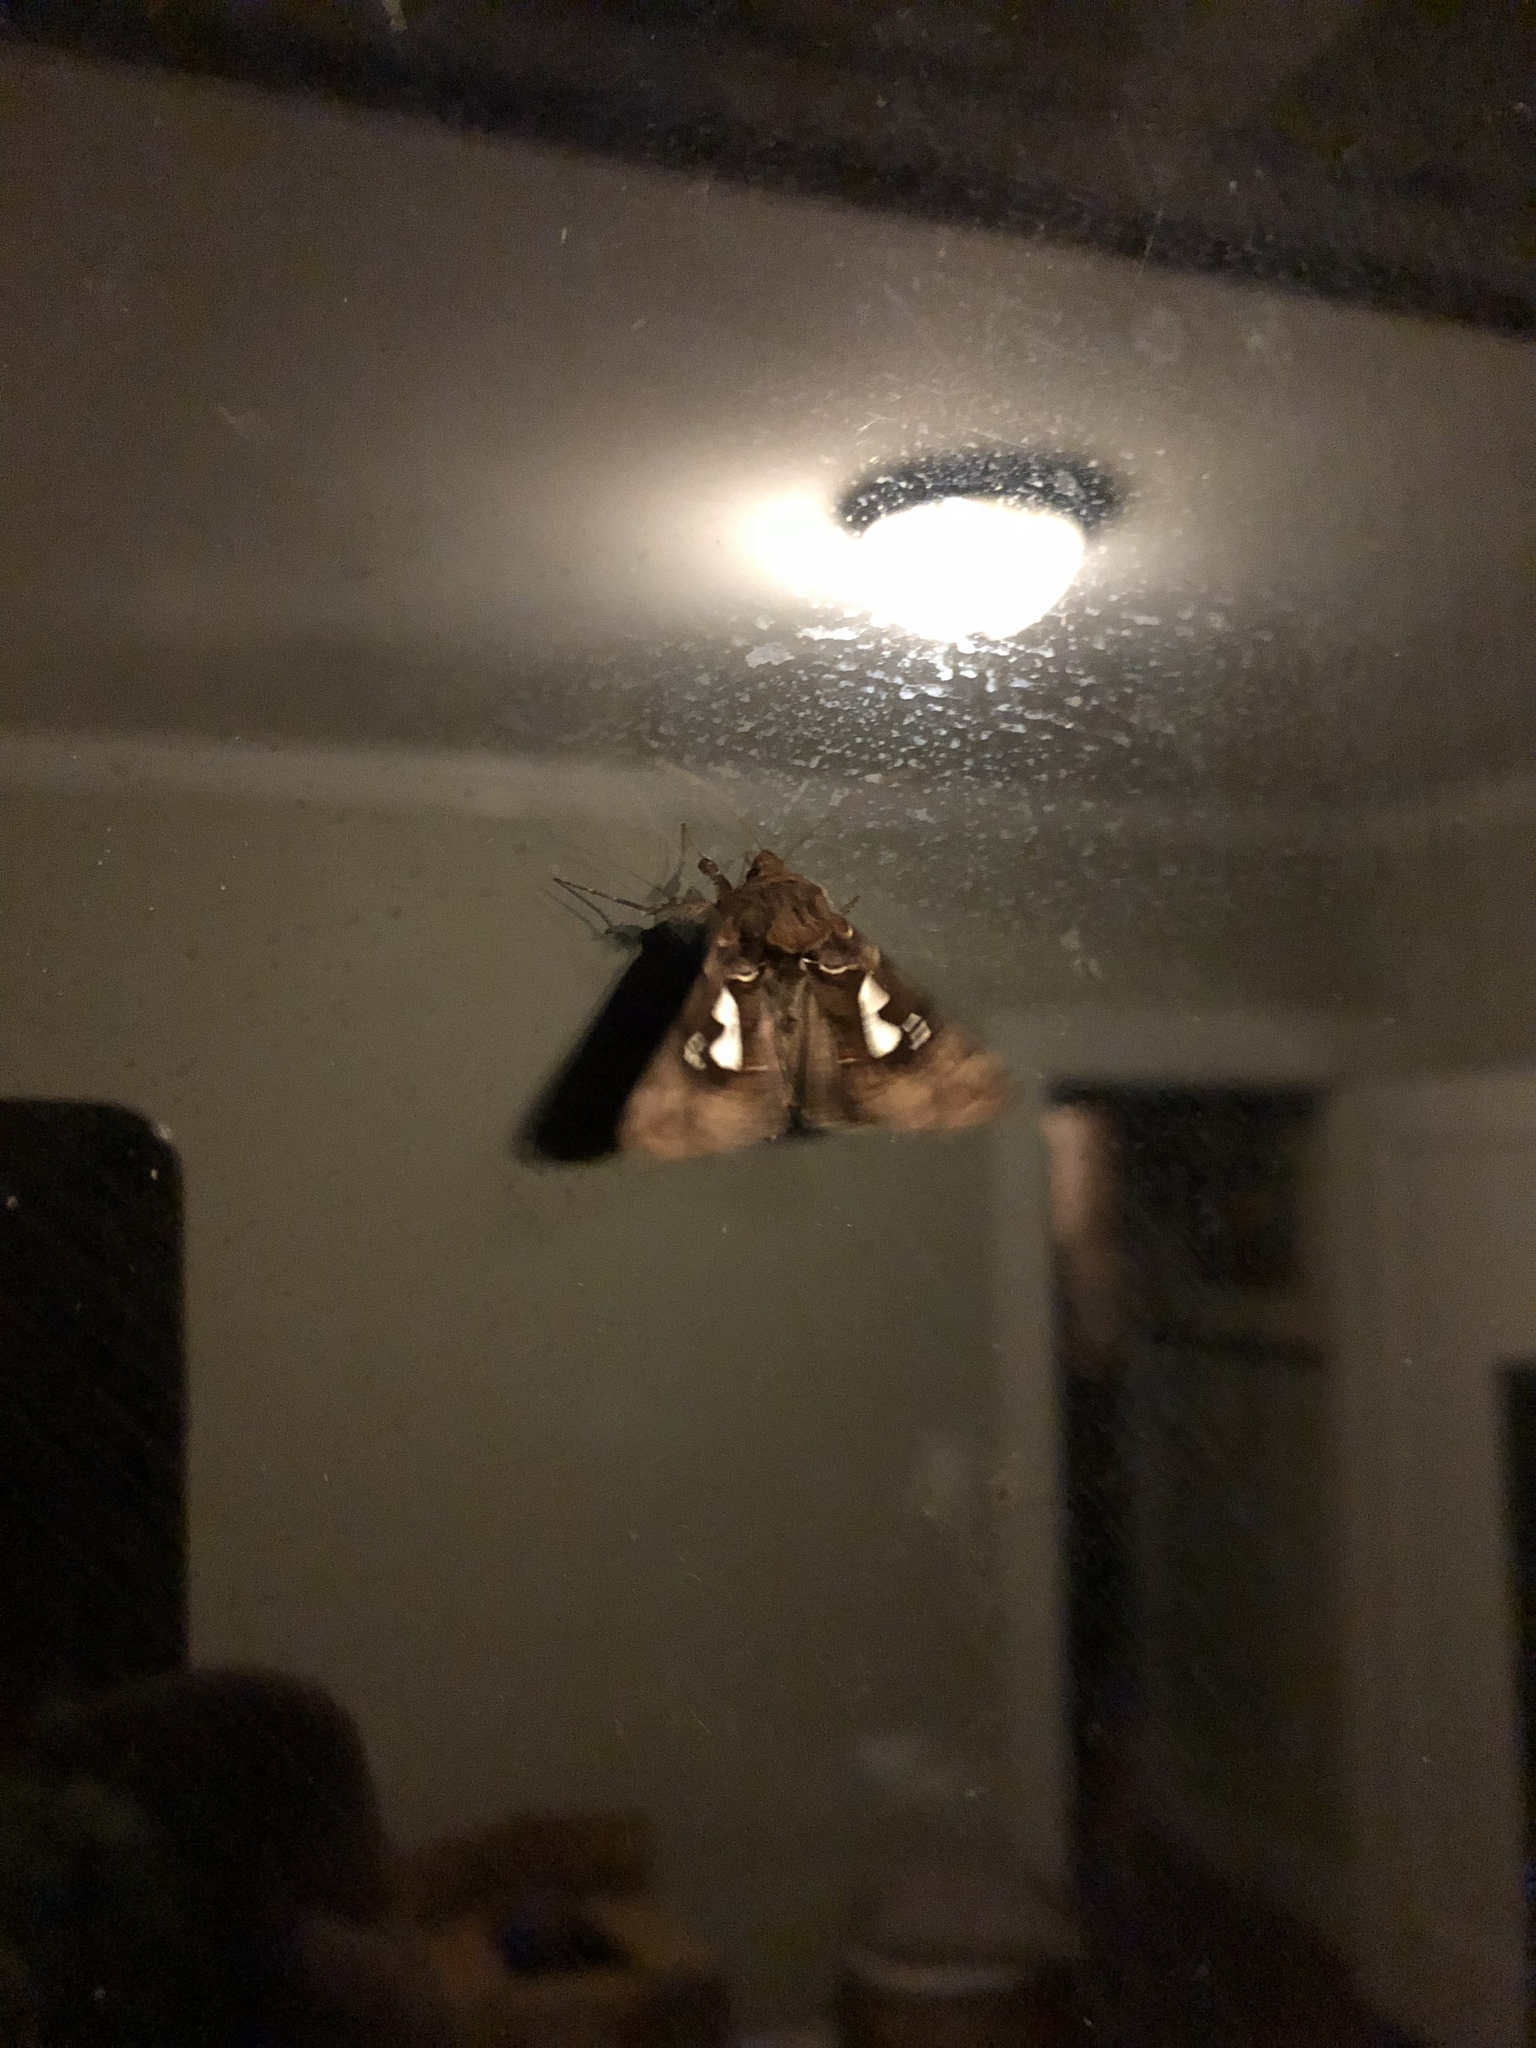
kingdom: Animalia
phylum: Arthropoda
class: Insecta
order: Lepidoptera
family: Noctuidae
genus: Megalographa
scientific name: Megalographa biloba
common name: Cutworm
